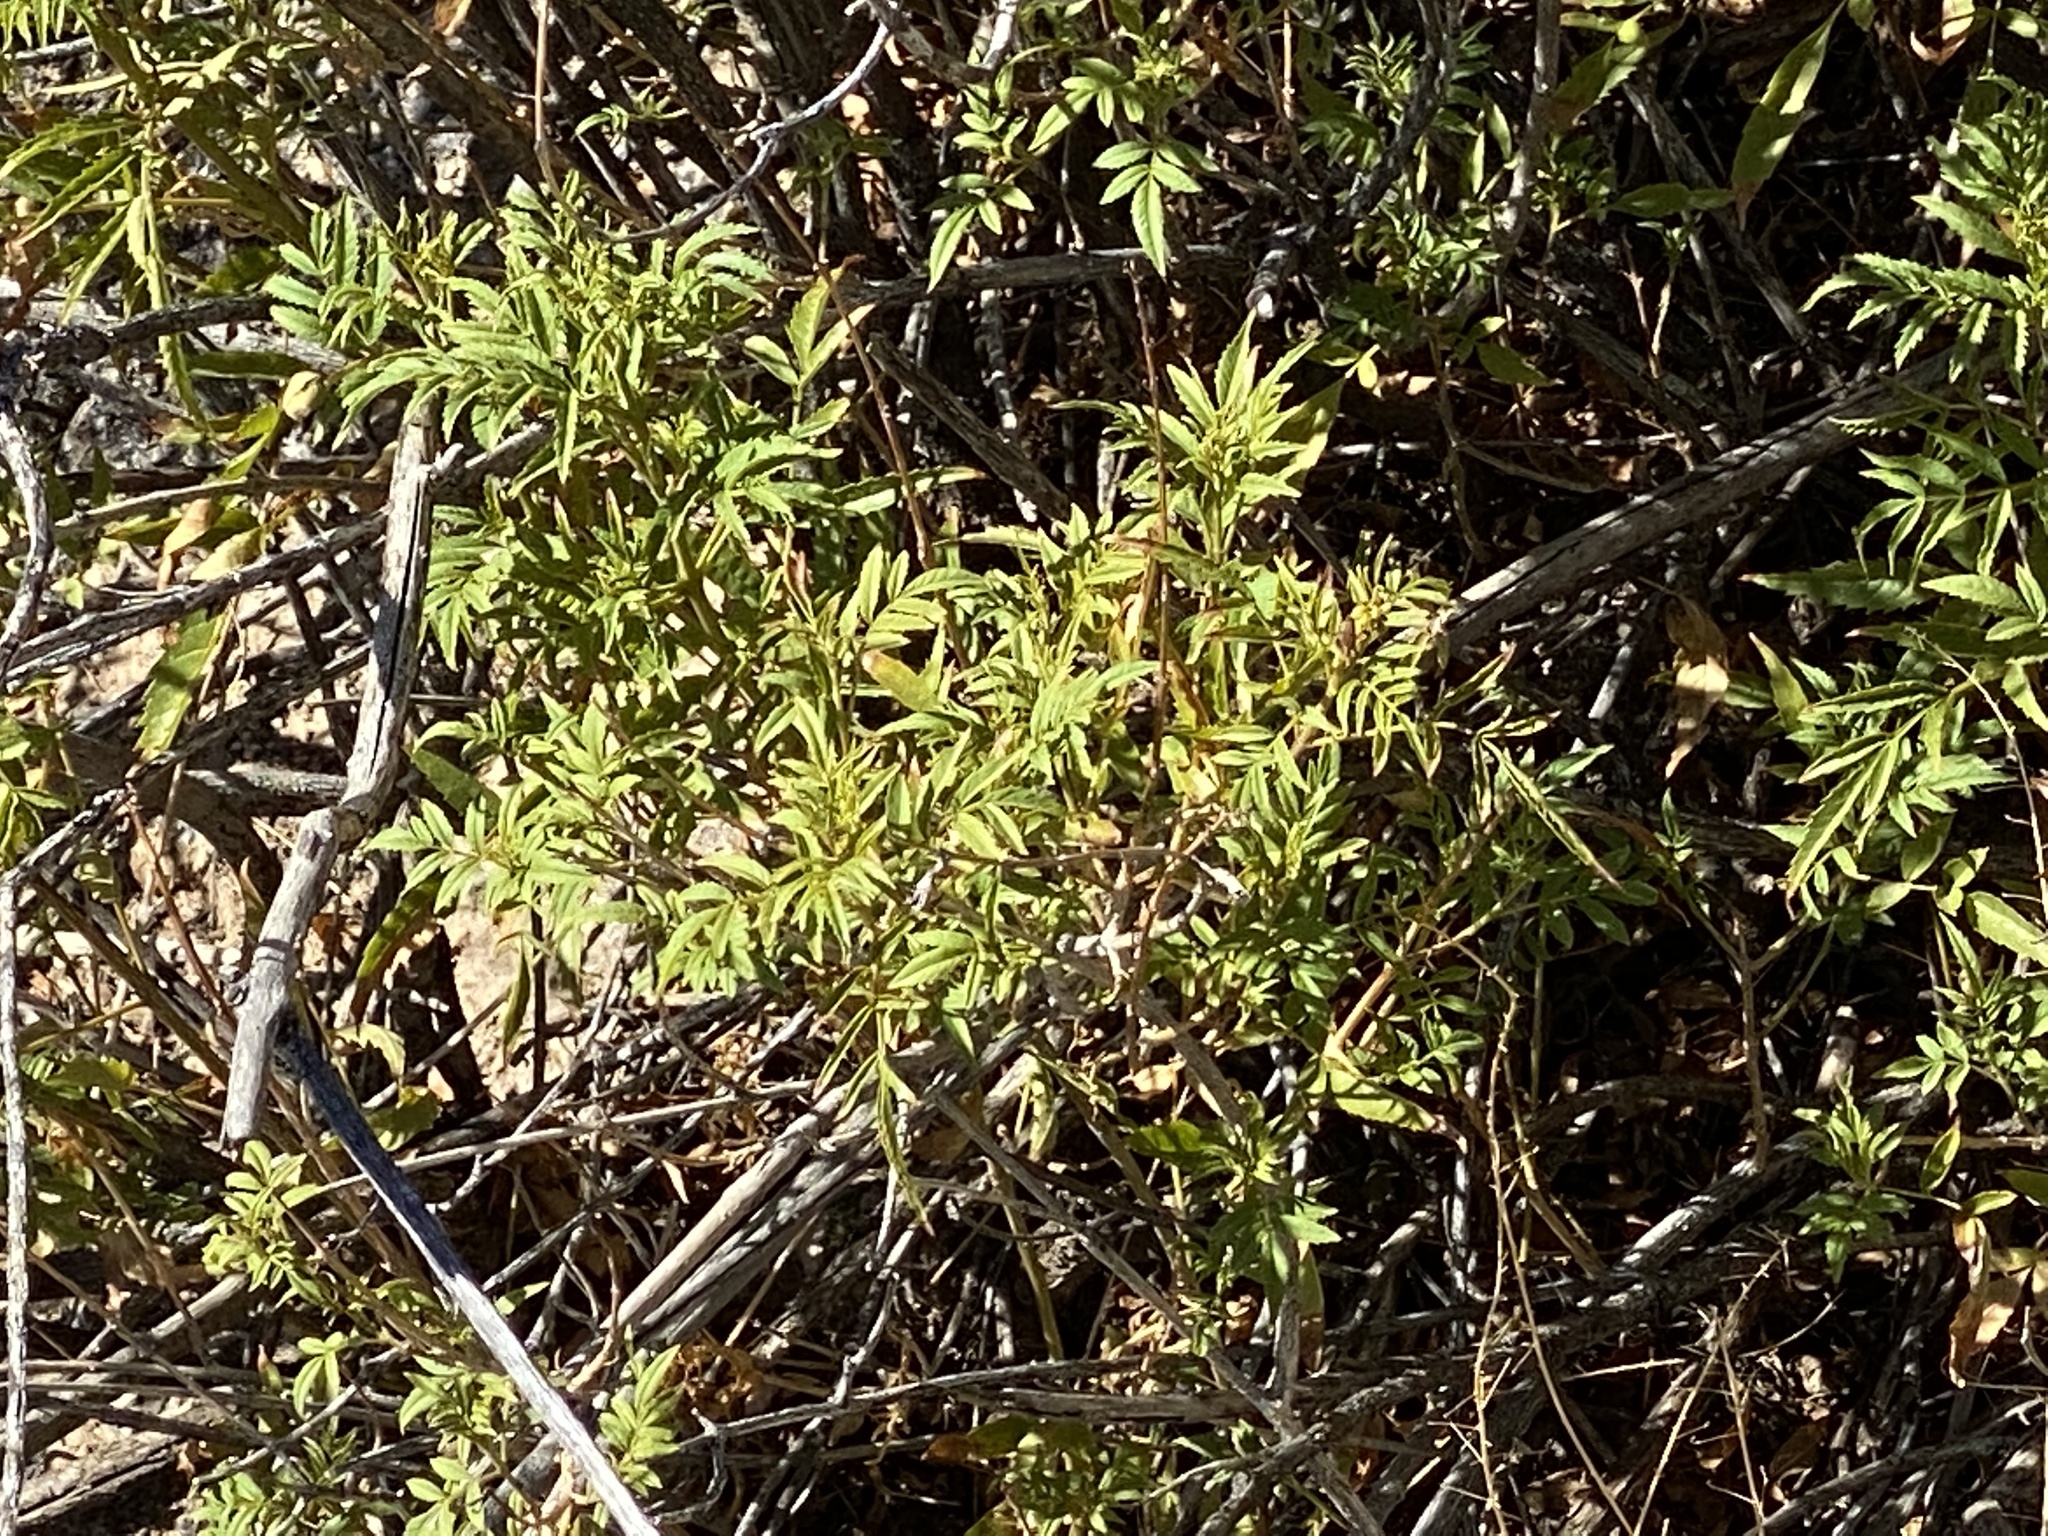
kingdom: Plantae
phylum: Tracheophyta
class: Magnoliopsida
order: Asterales
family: Asteraceae
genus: Sidneya
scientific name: Sidneya tenuifolia
